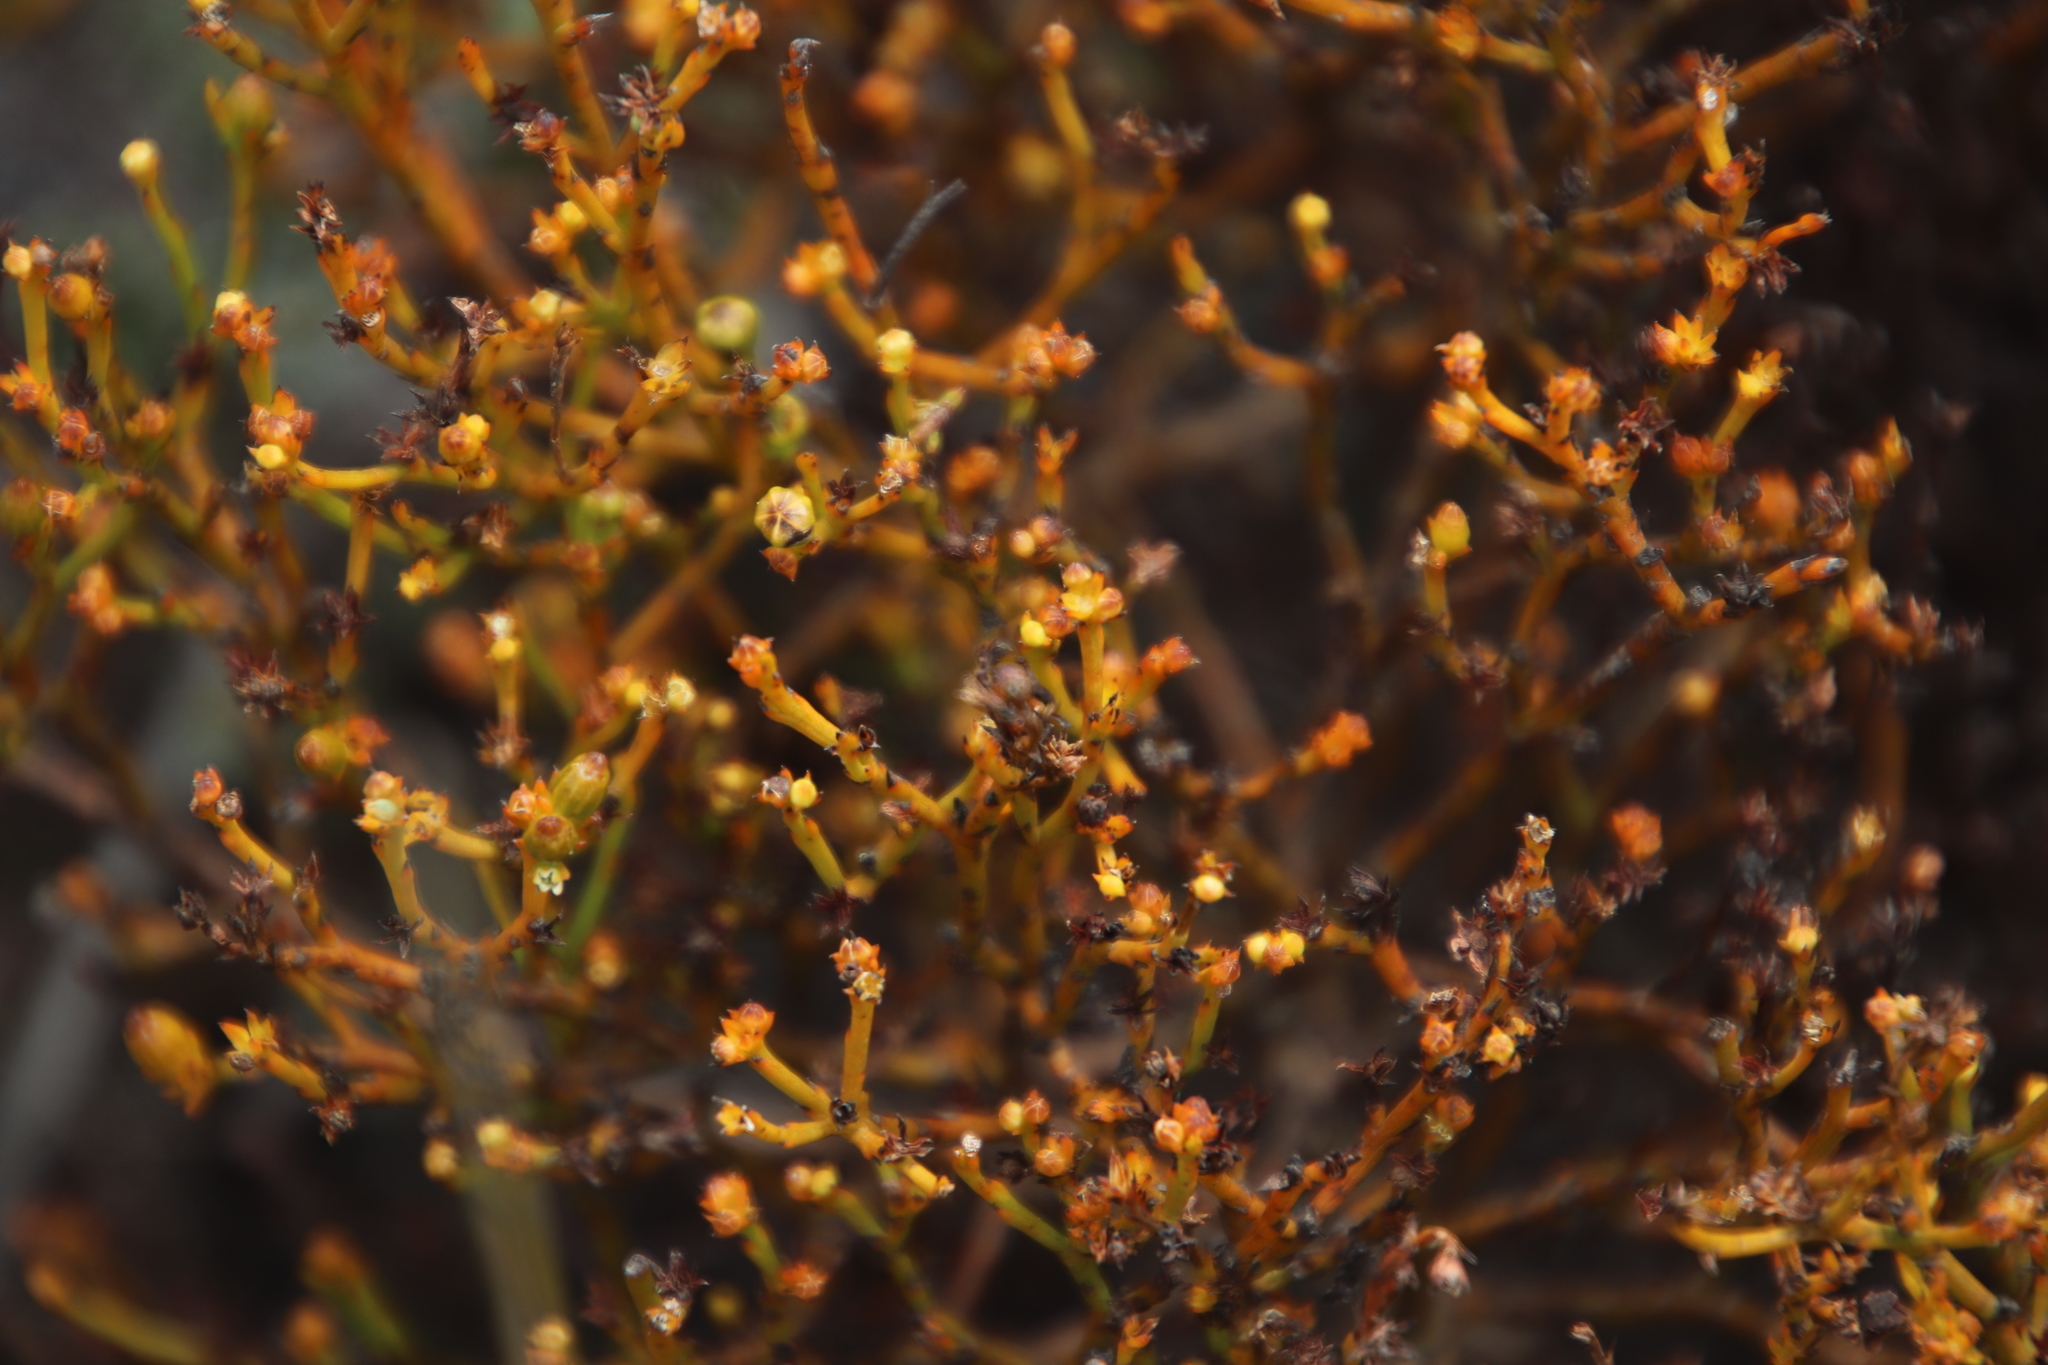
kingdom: Plantae
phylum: Tracheophyta
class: Magnoliopsida
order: Santalales
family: Thesiaceae
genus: Thesium
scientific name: Thesium commutatum
